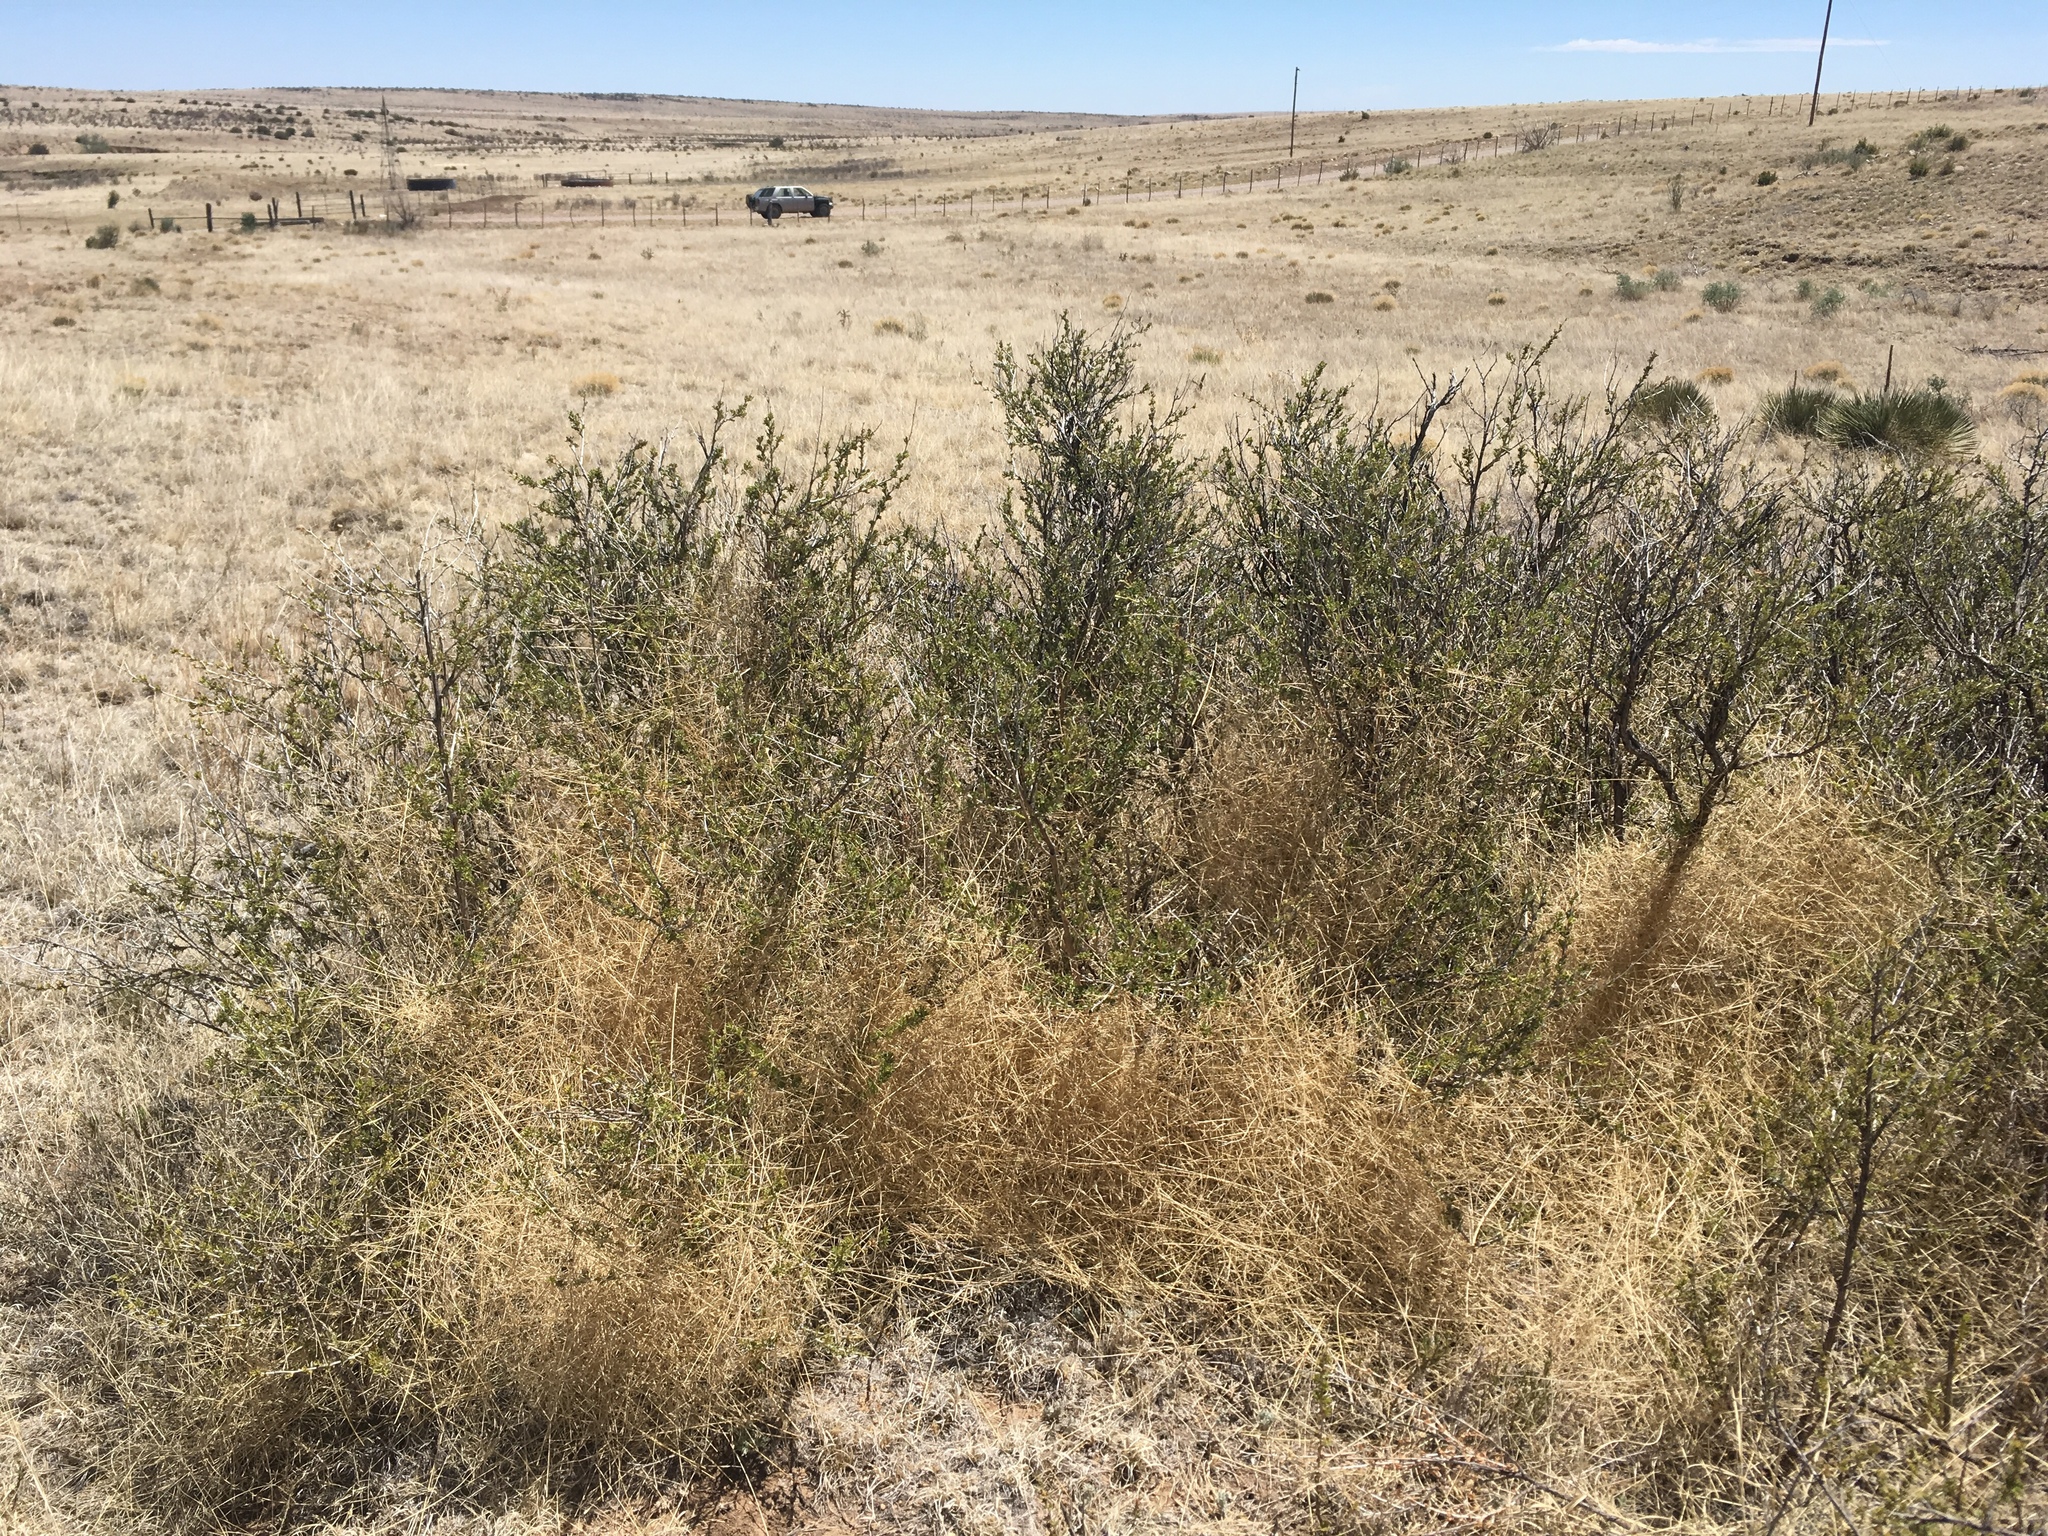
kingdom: Plantae
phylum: Tracheophyta
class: Magnoliopsida
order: Rosales
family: Rosaceae
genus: Fallugia
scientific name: Fallugia paradoxa
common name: Apache-plume
